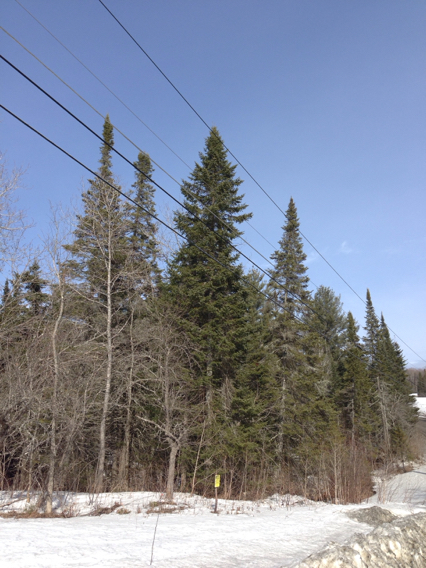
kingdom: Plantae
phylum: Tracheophyta
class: Pinopsida
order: Pinales
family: Pinaceae
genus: Abies
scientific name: Abies balsamea
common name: Balsam fir
